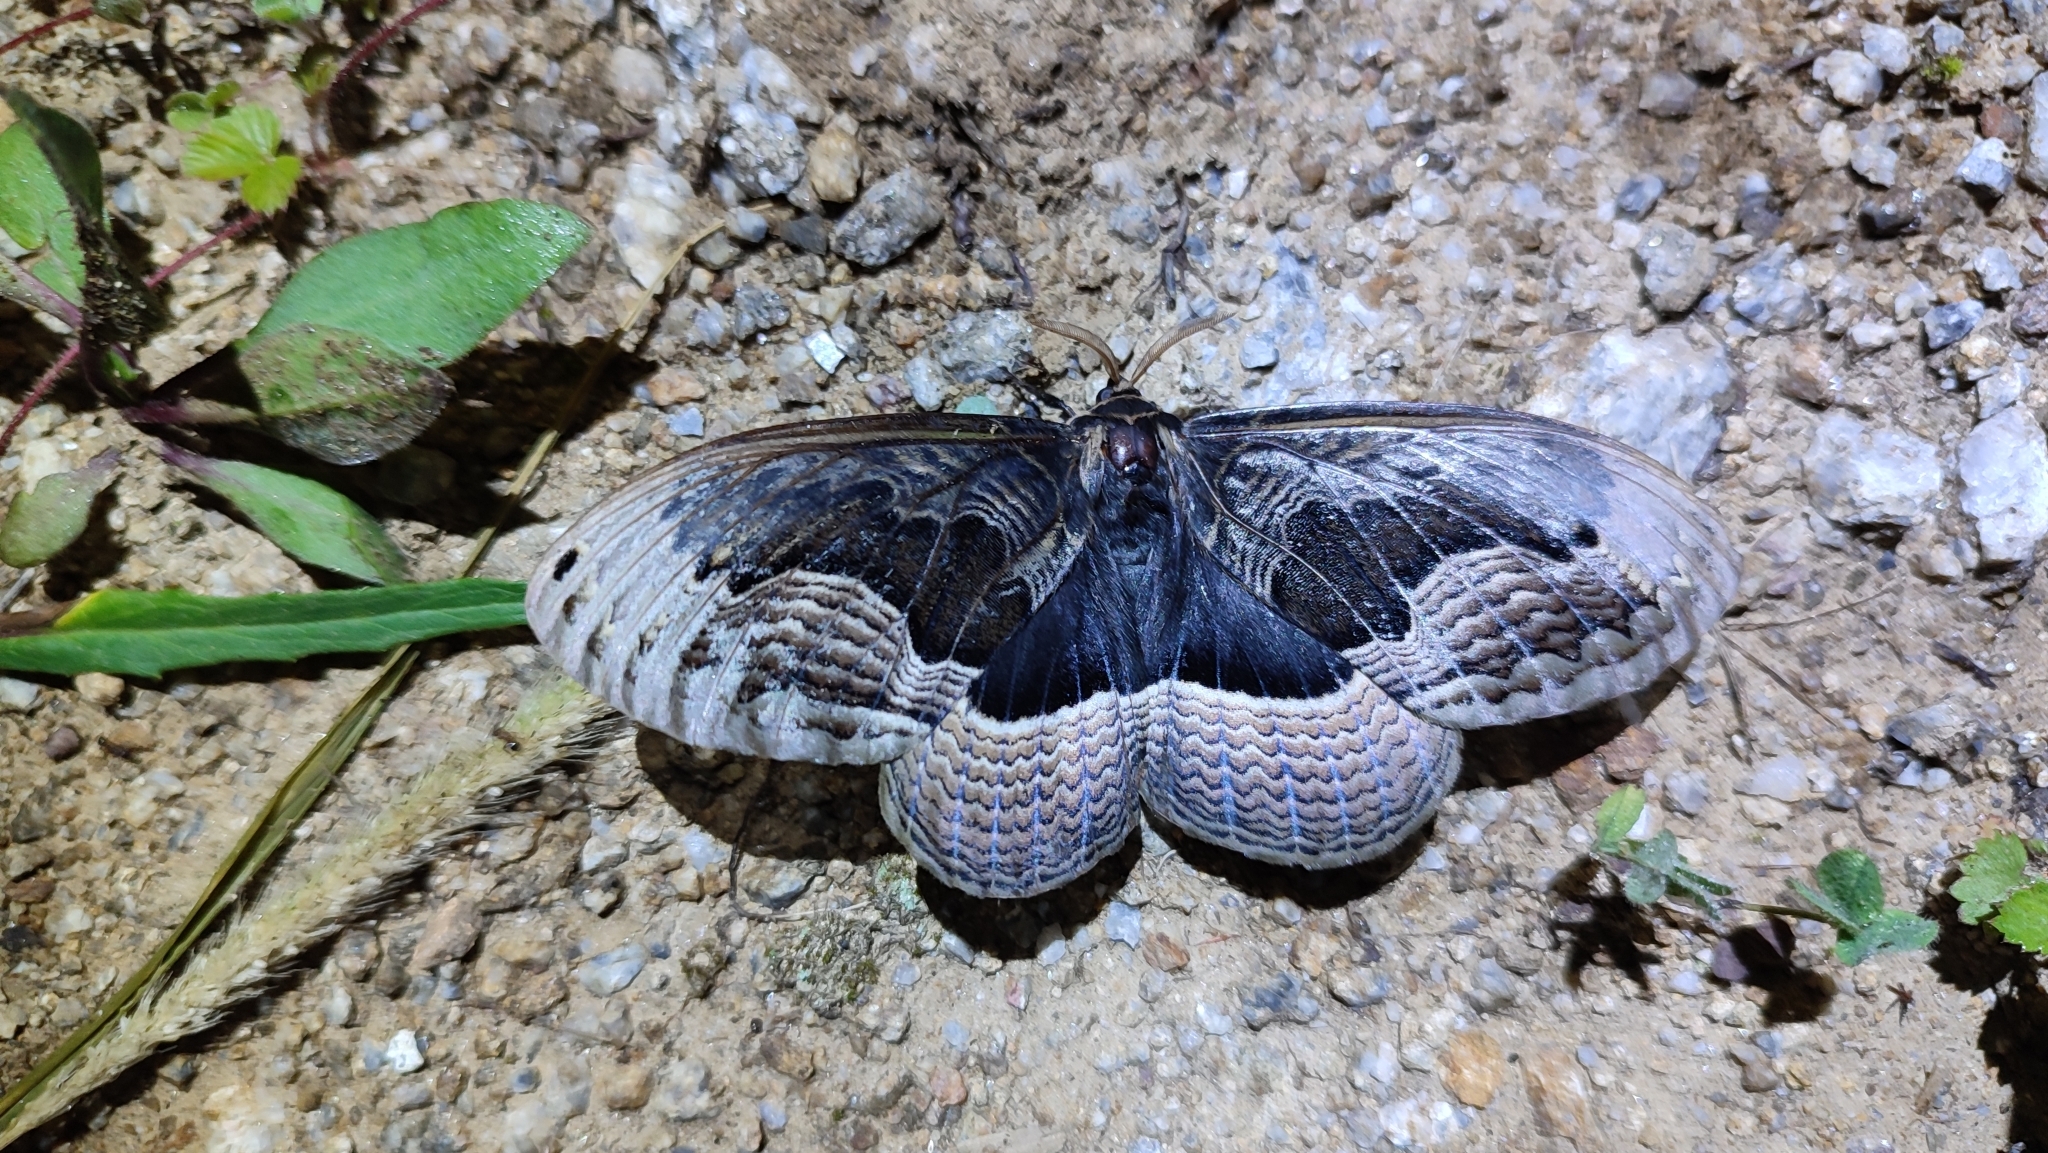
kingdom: Animalia
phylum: Arthropoda
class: Insecta
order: Lepidoptera
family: Brahmaeidae
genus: Brahmaea
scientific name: Brahmaea certhia
